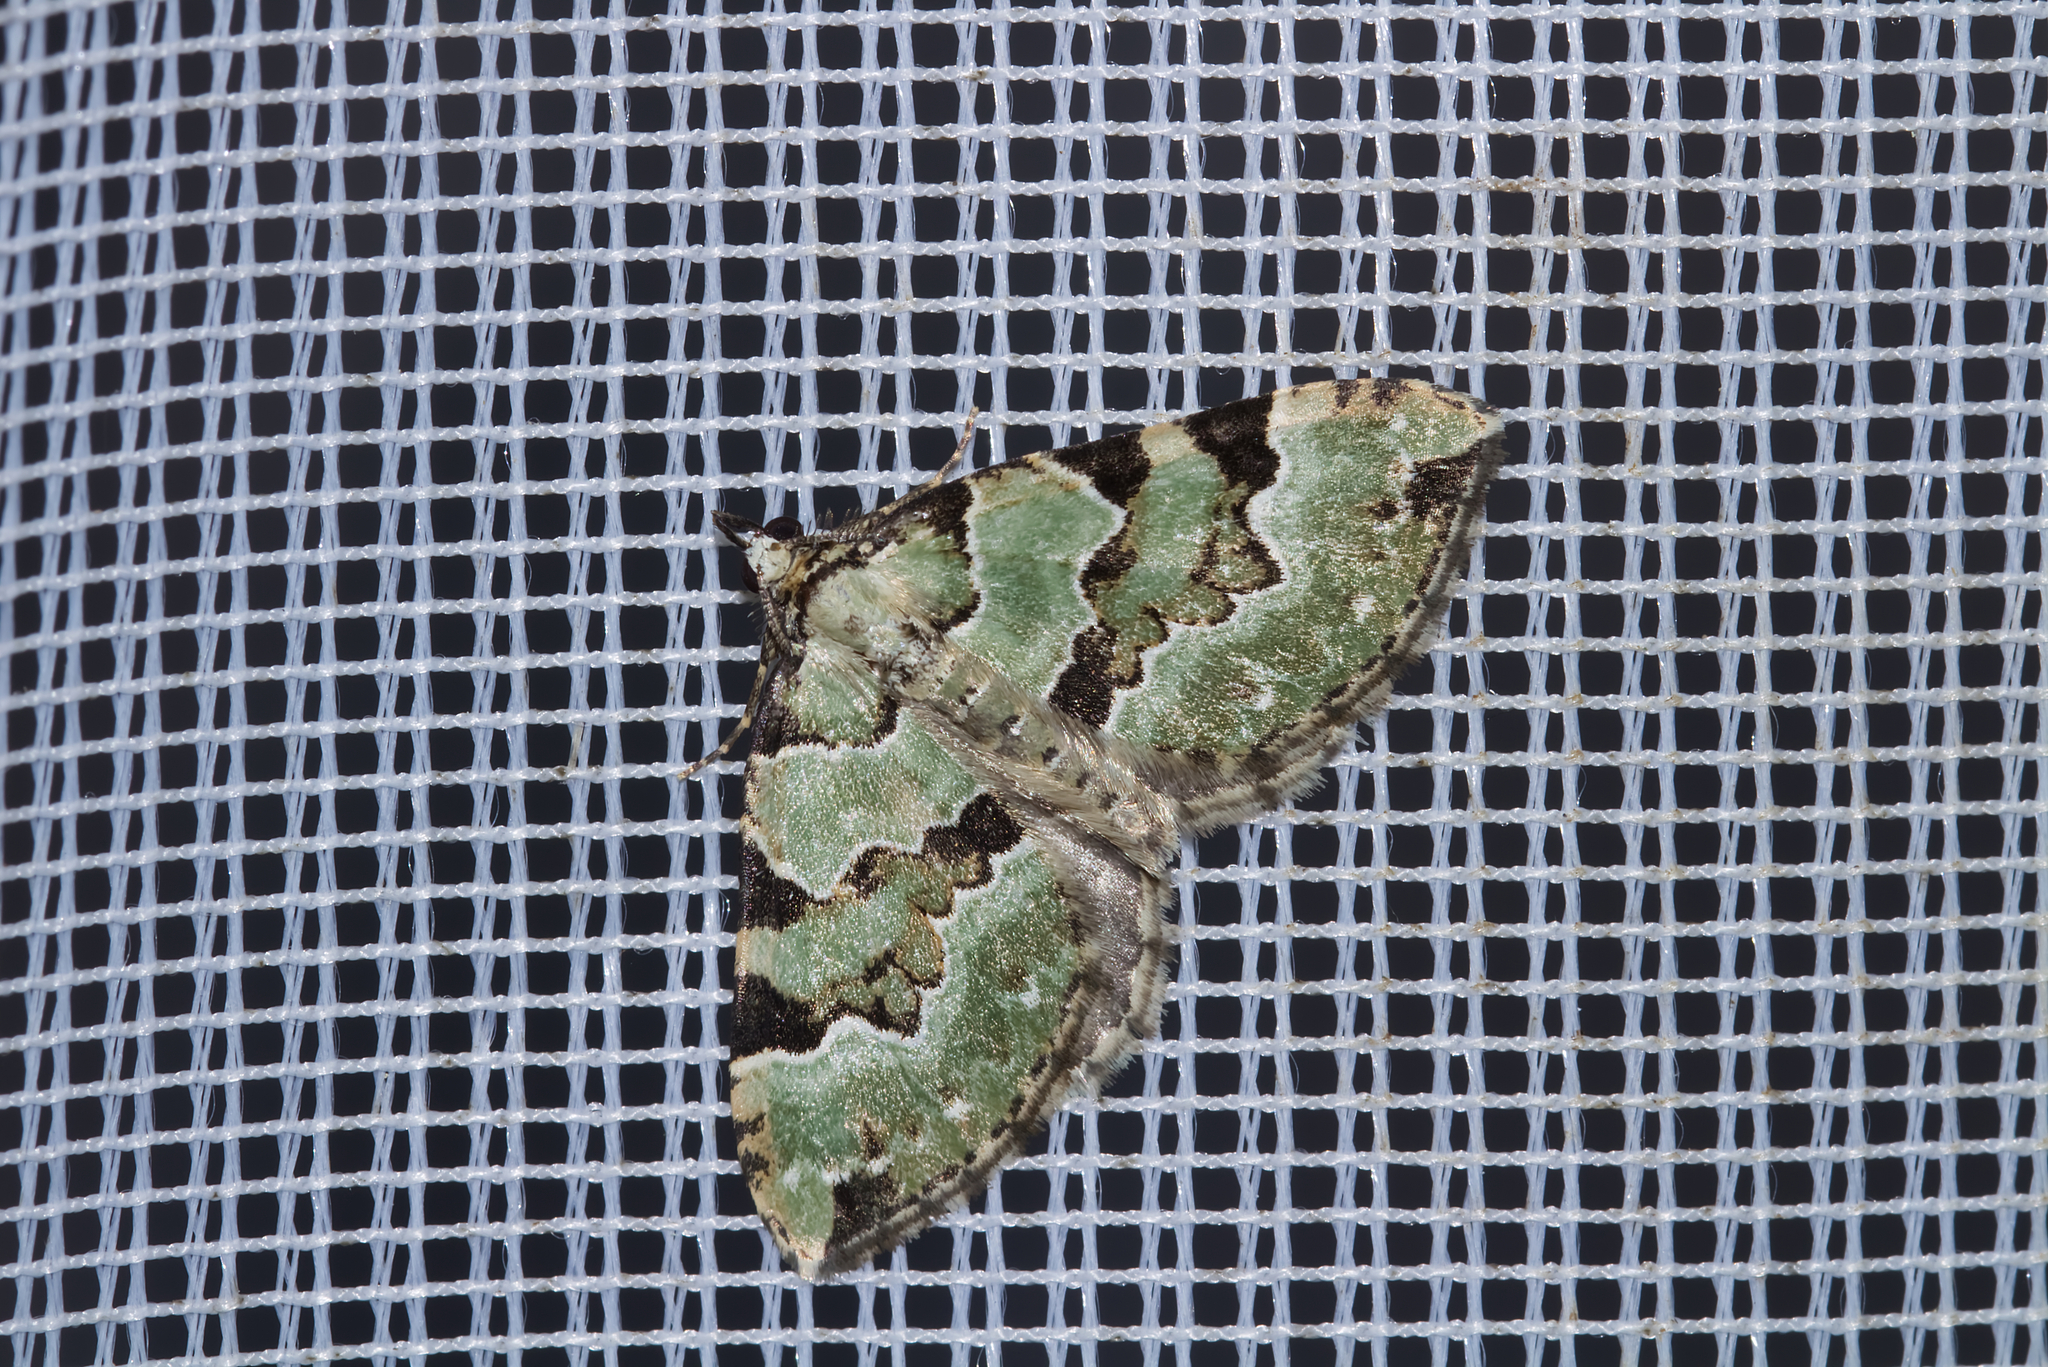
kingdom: Animalia
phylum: Arthropoda
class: Insecta
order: Lepidoptera
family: Geometridae
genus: Colostygia
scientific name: Colostygia pectinataria
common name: Green carpet
